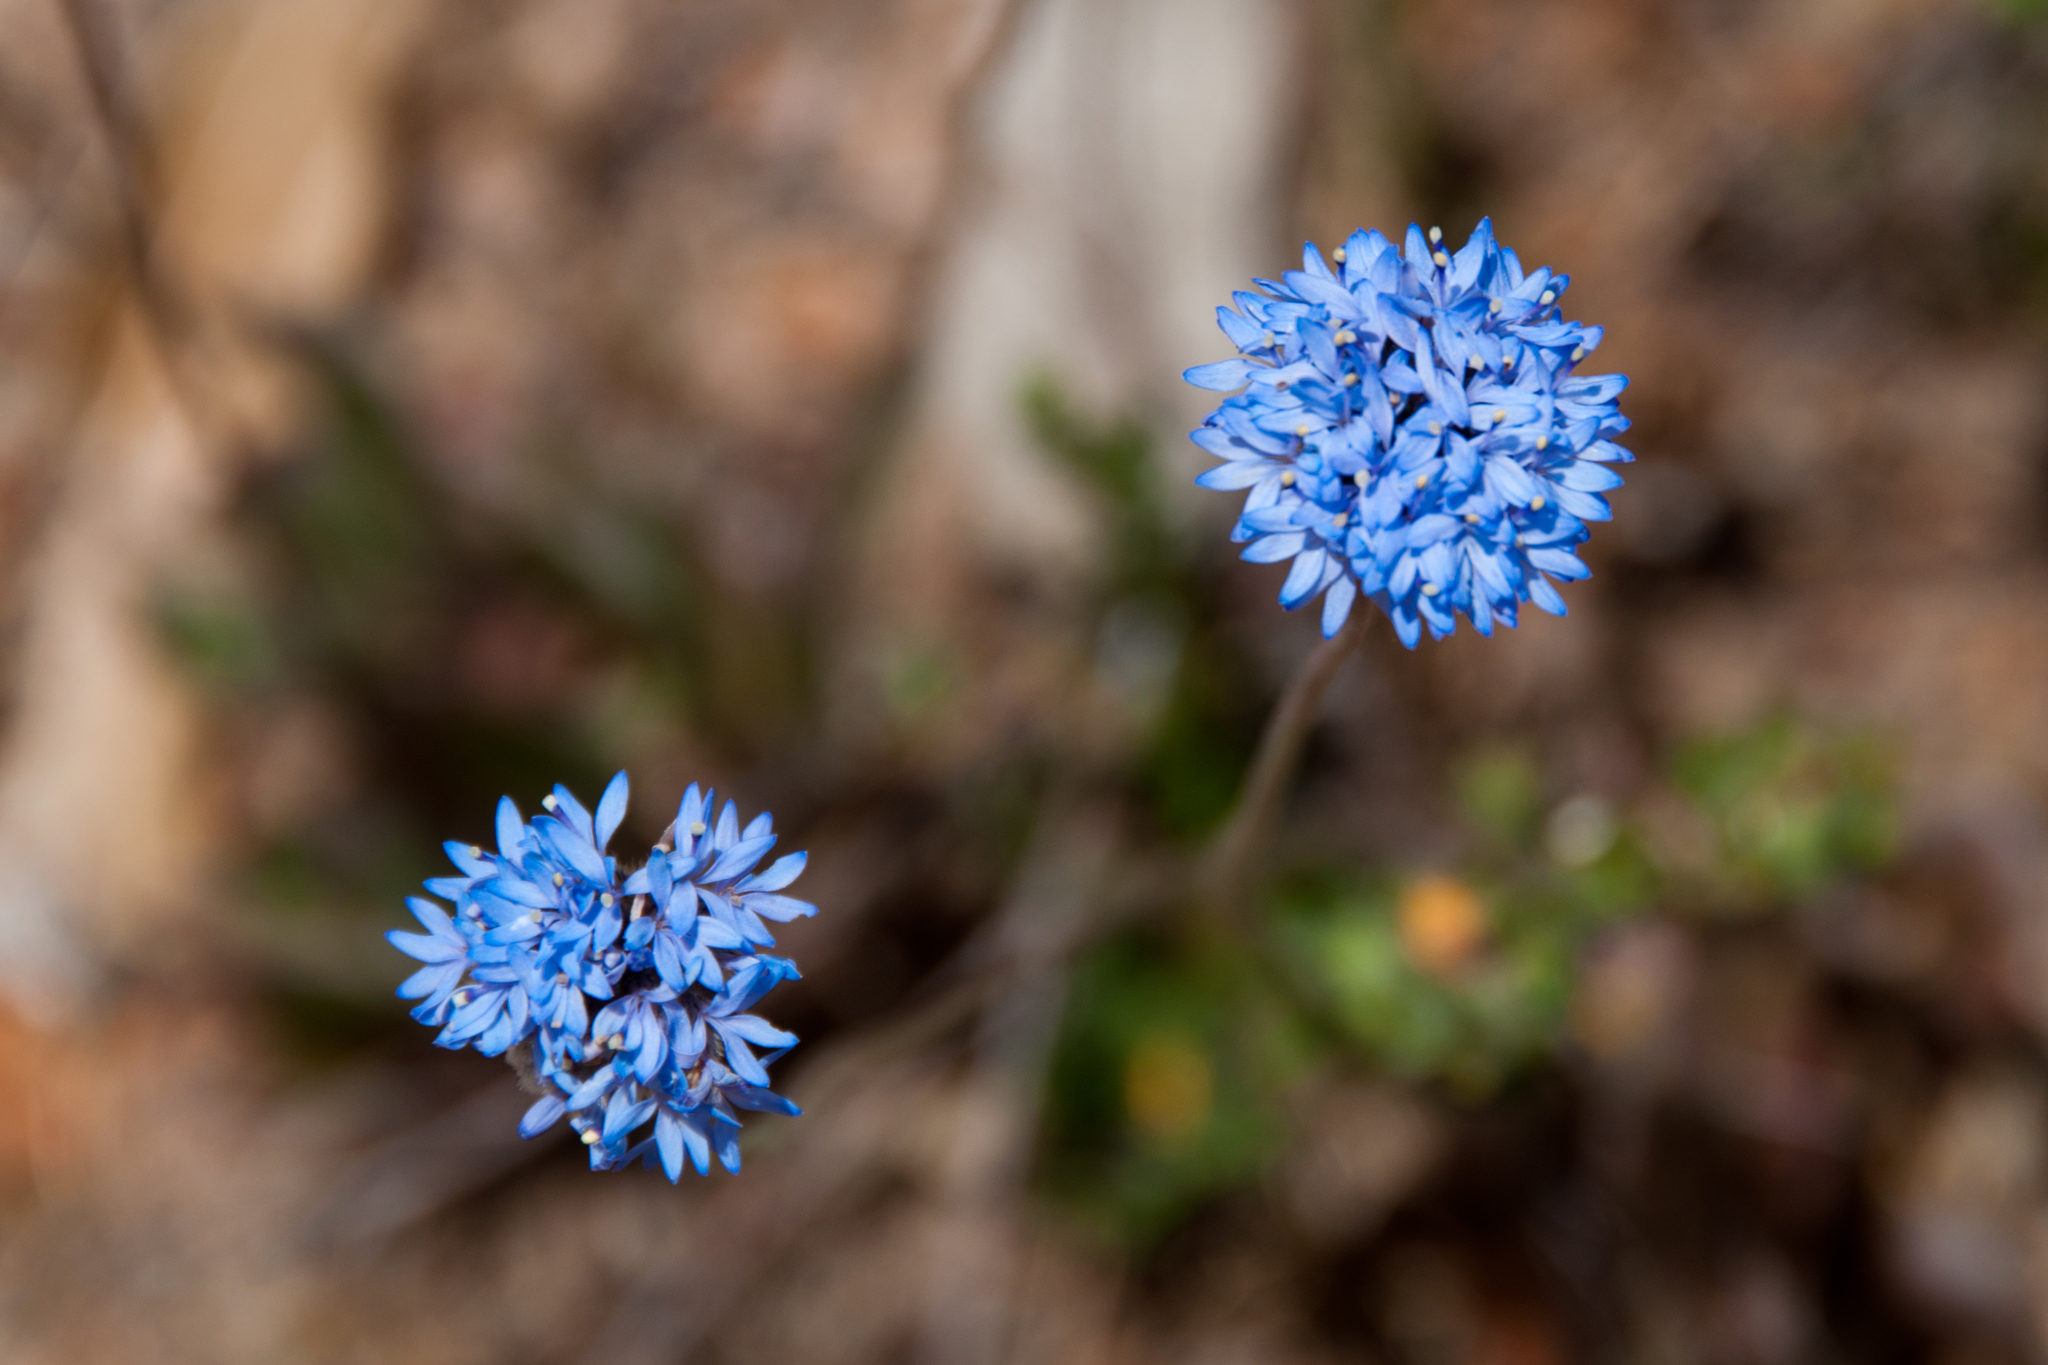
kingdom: Plantae
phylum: Tracheophyta
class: Magnoliopsida
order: Asterales
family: Goodeniaceae
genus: Brunonia
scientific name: Brunonia australis
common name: Blue pincushion
